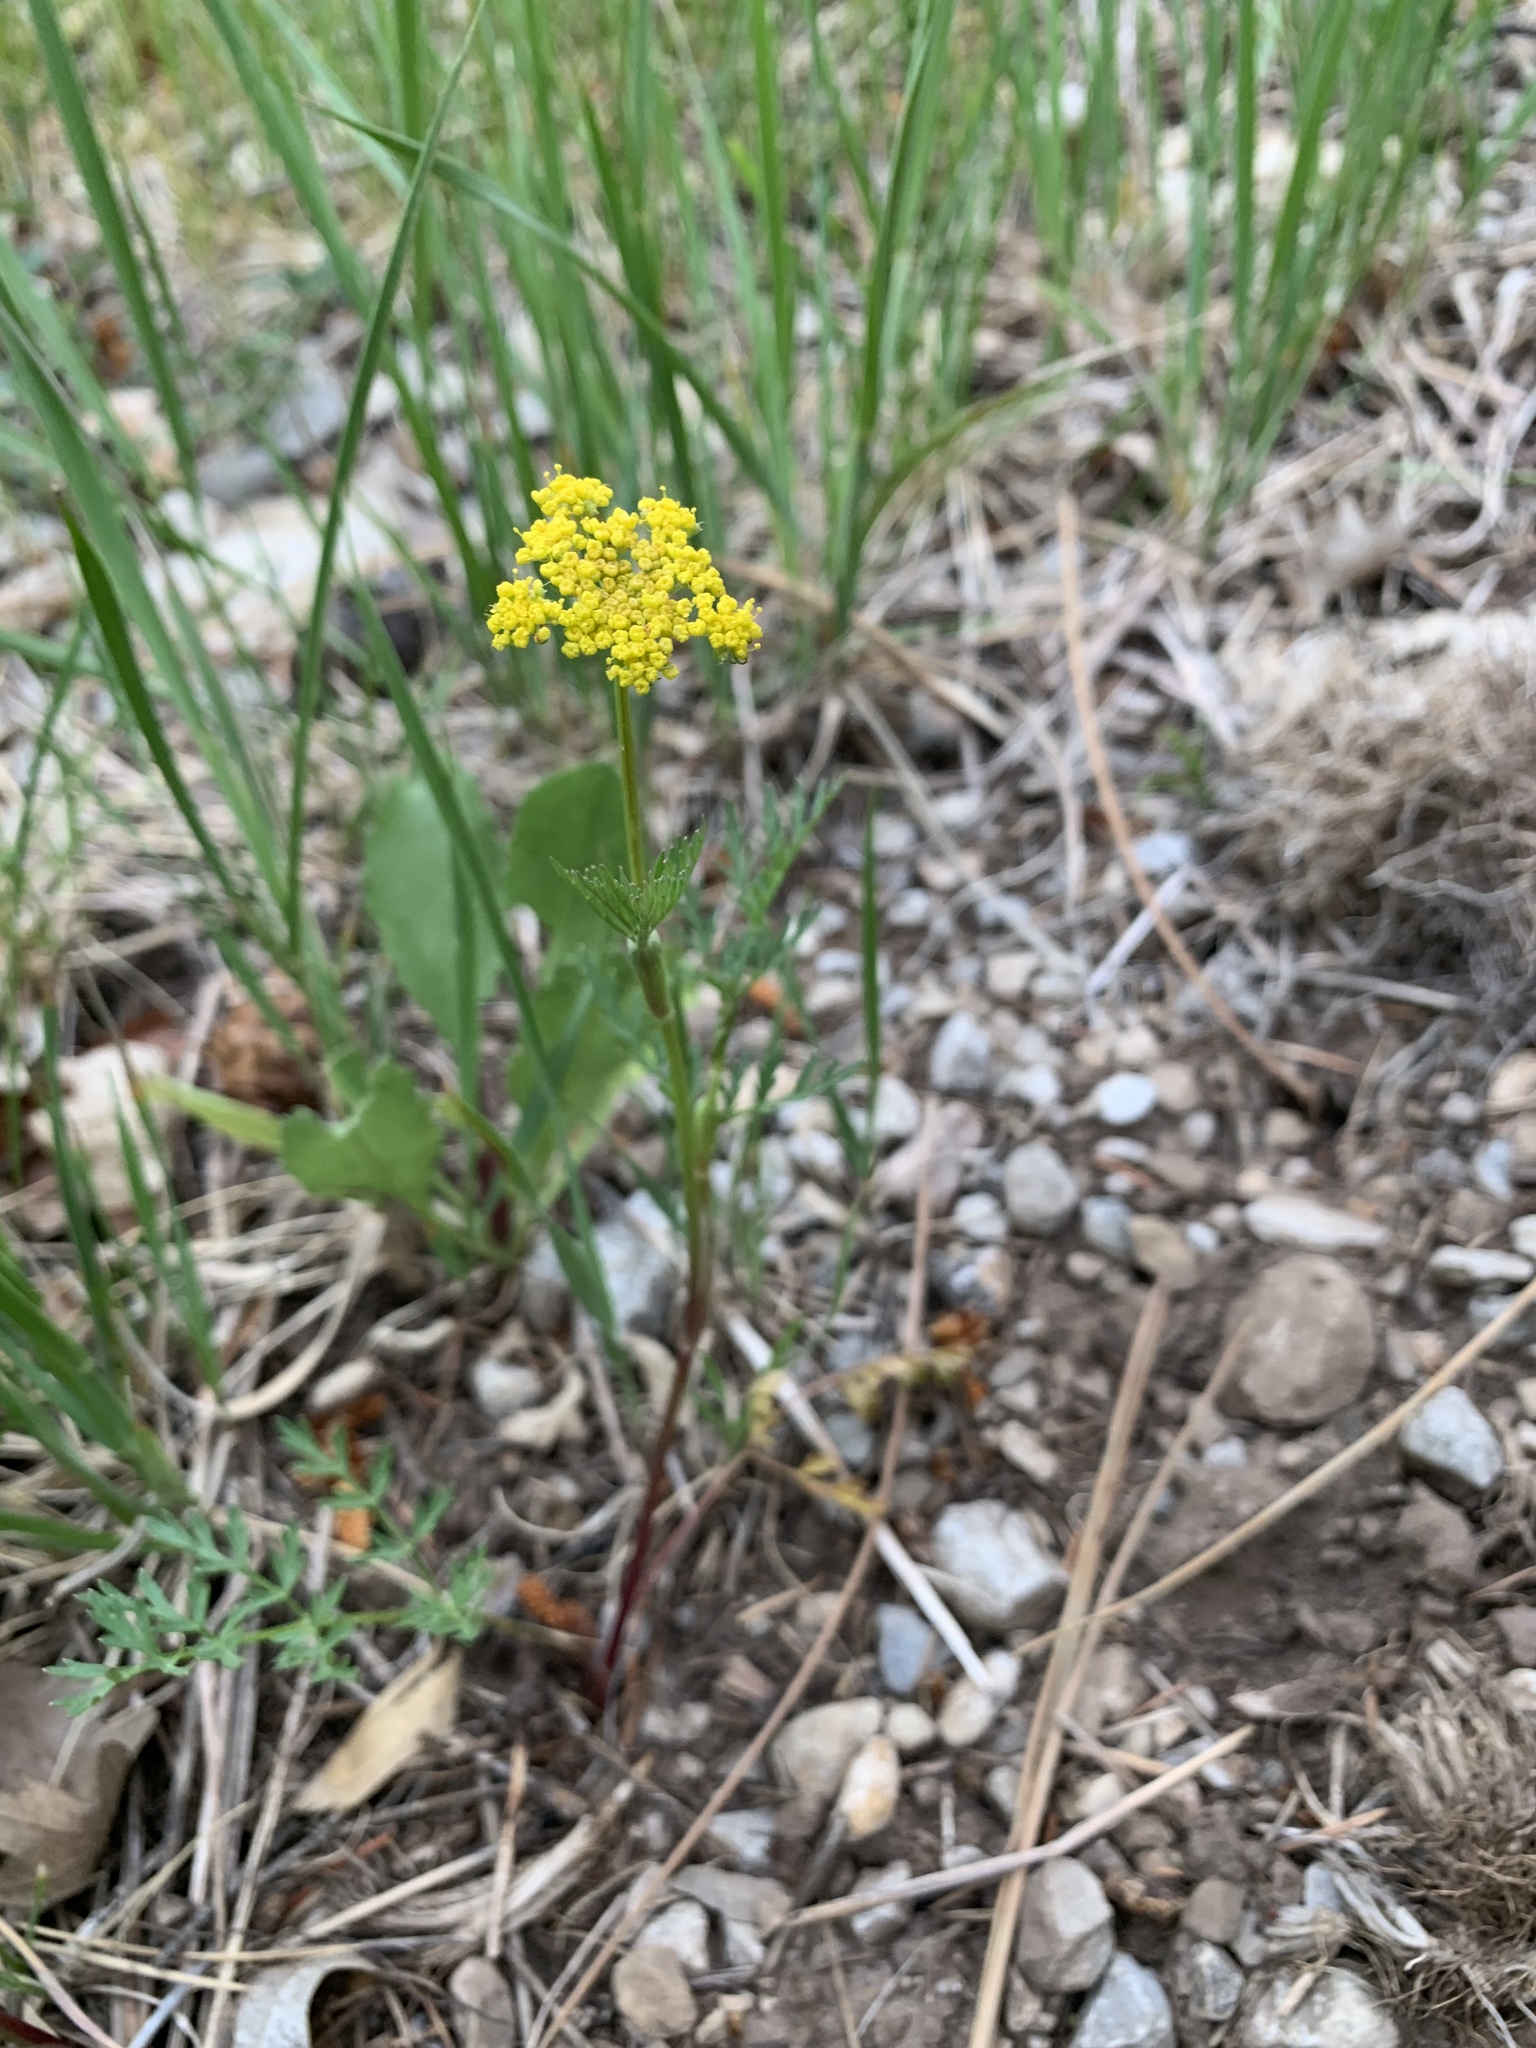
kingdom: Plantae
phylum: Tracheophyta
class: Magnoliopsida
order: Apiales
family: Apiaceae
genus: Cymopterus
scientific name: Cymopterus lemmonii
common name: Lemmon's spring-parsley
